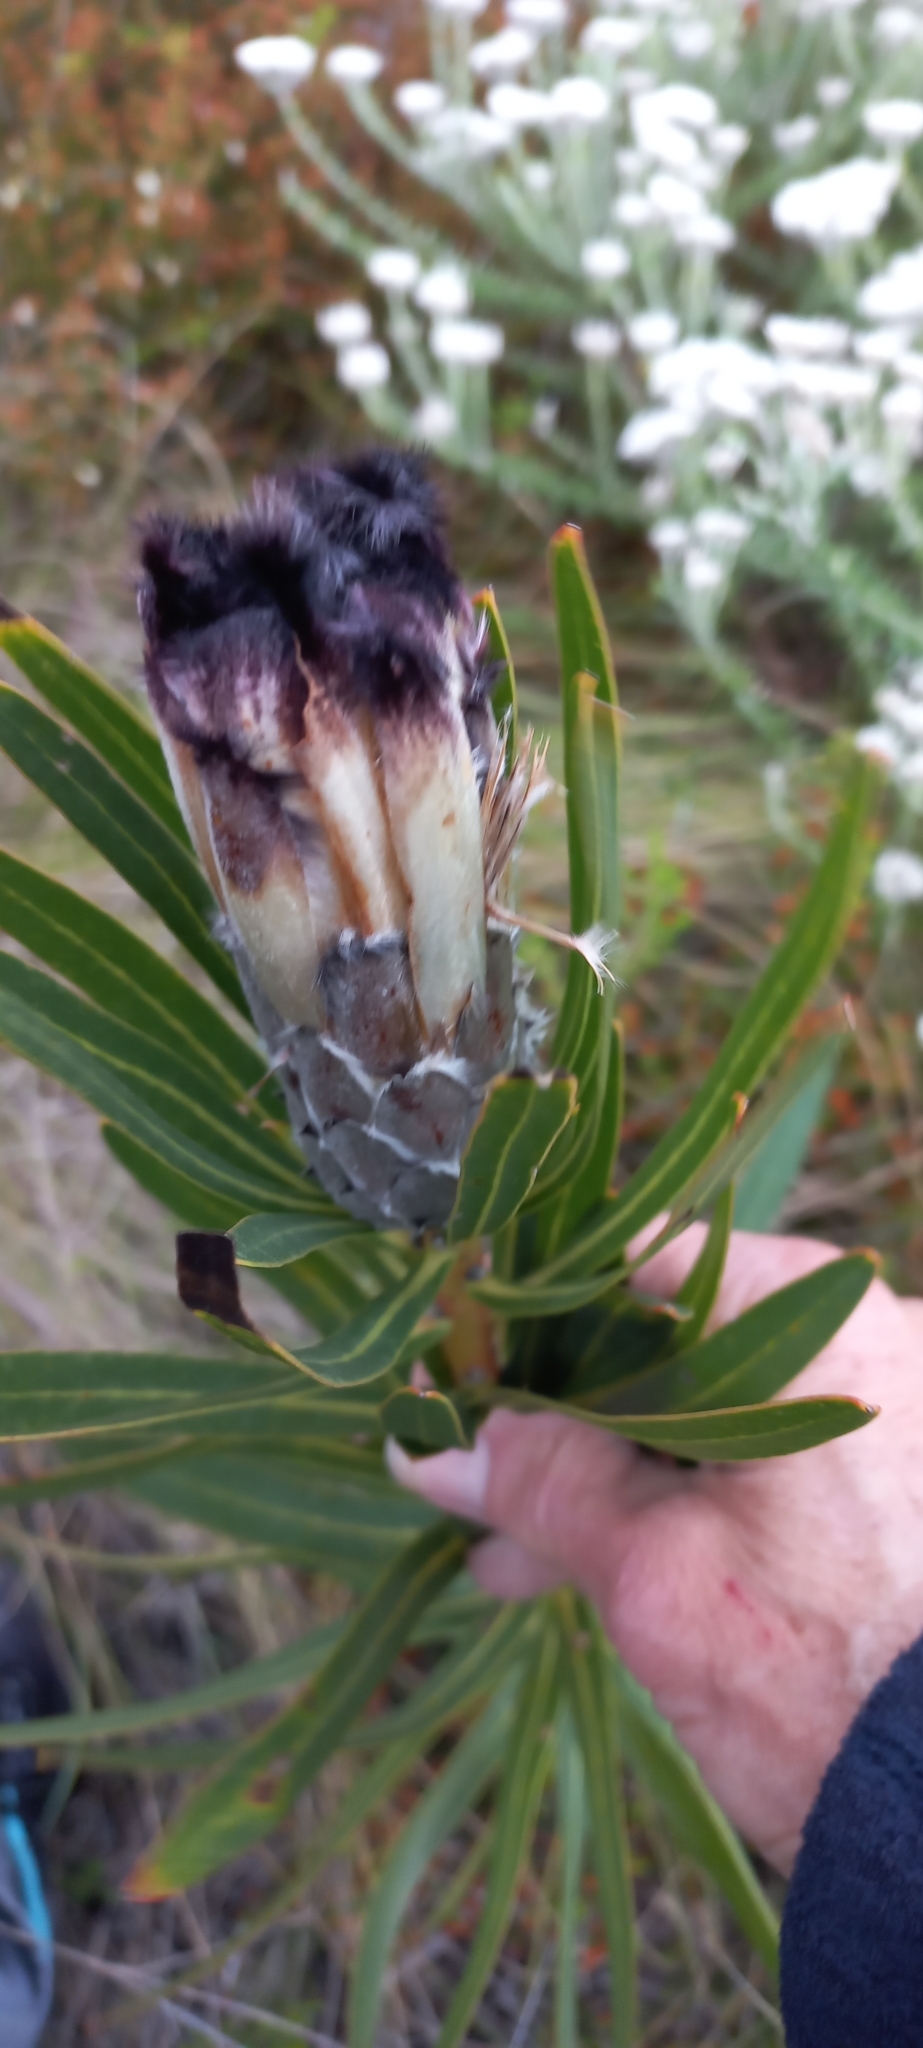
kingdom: Plantae
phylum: Tracheophyta
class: Magnoliopsida
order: Proteales
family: Proteaceae
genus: Protea
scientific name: Protea lepidocarpodendron
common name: Black-bearded protea
